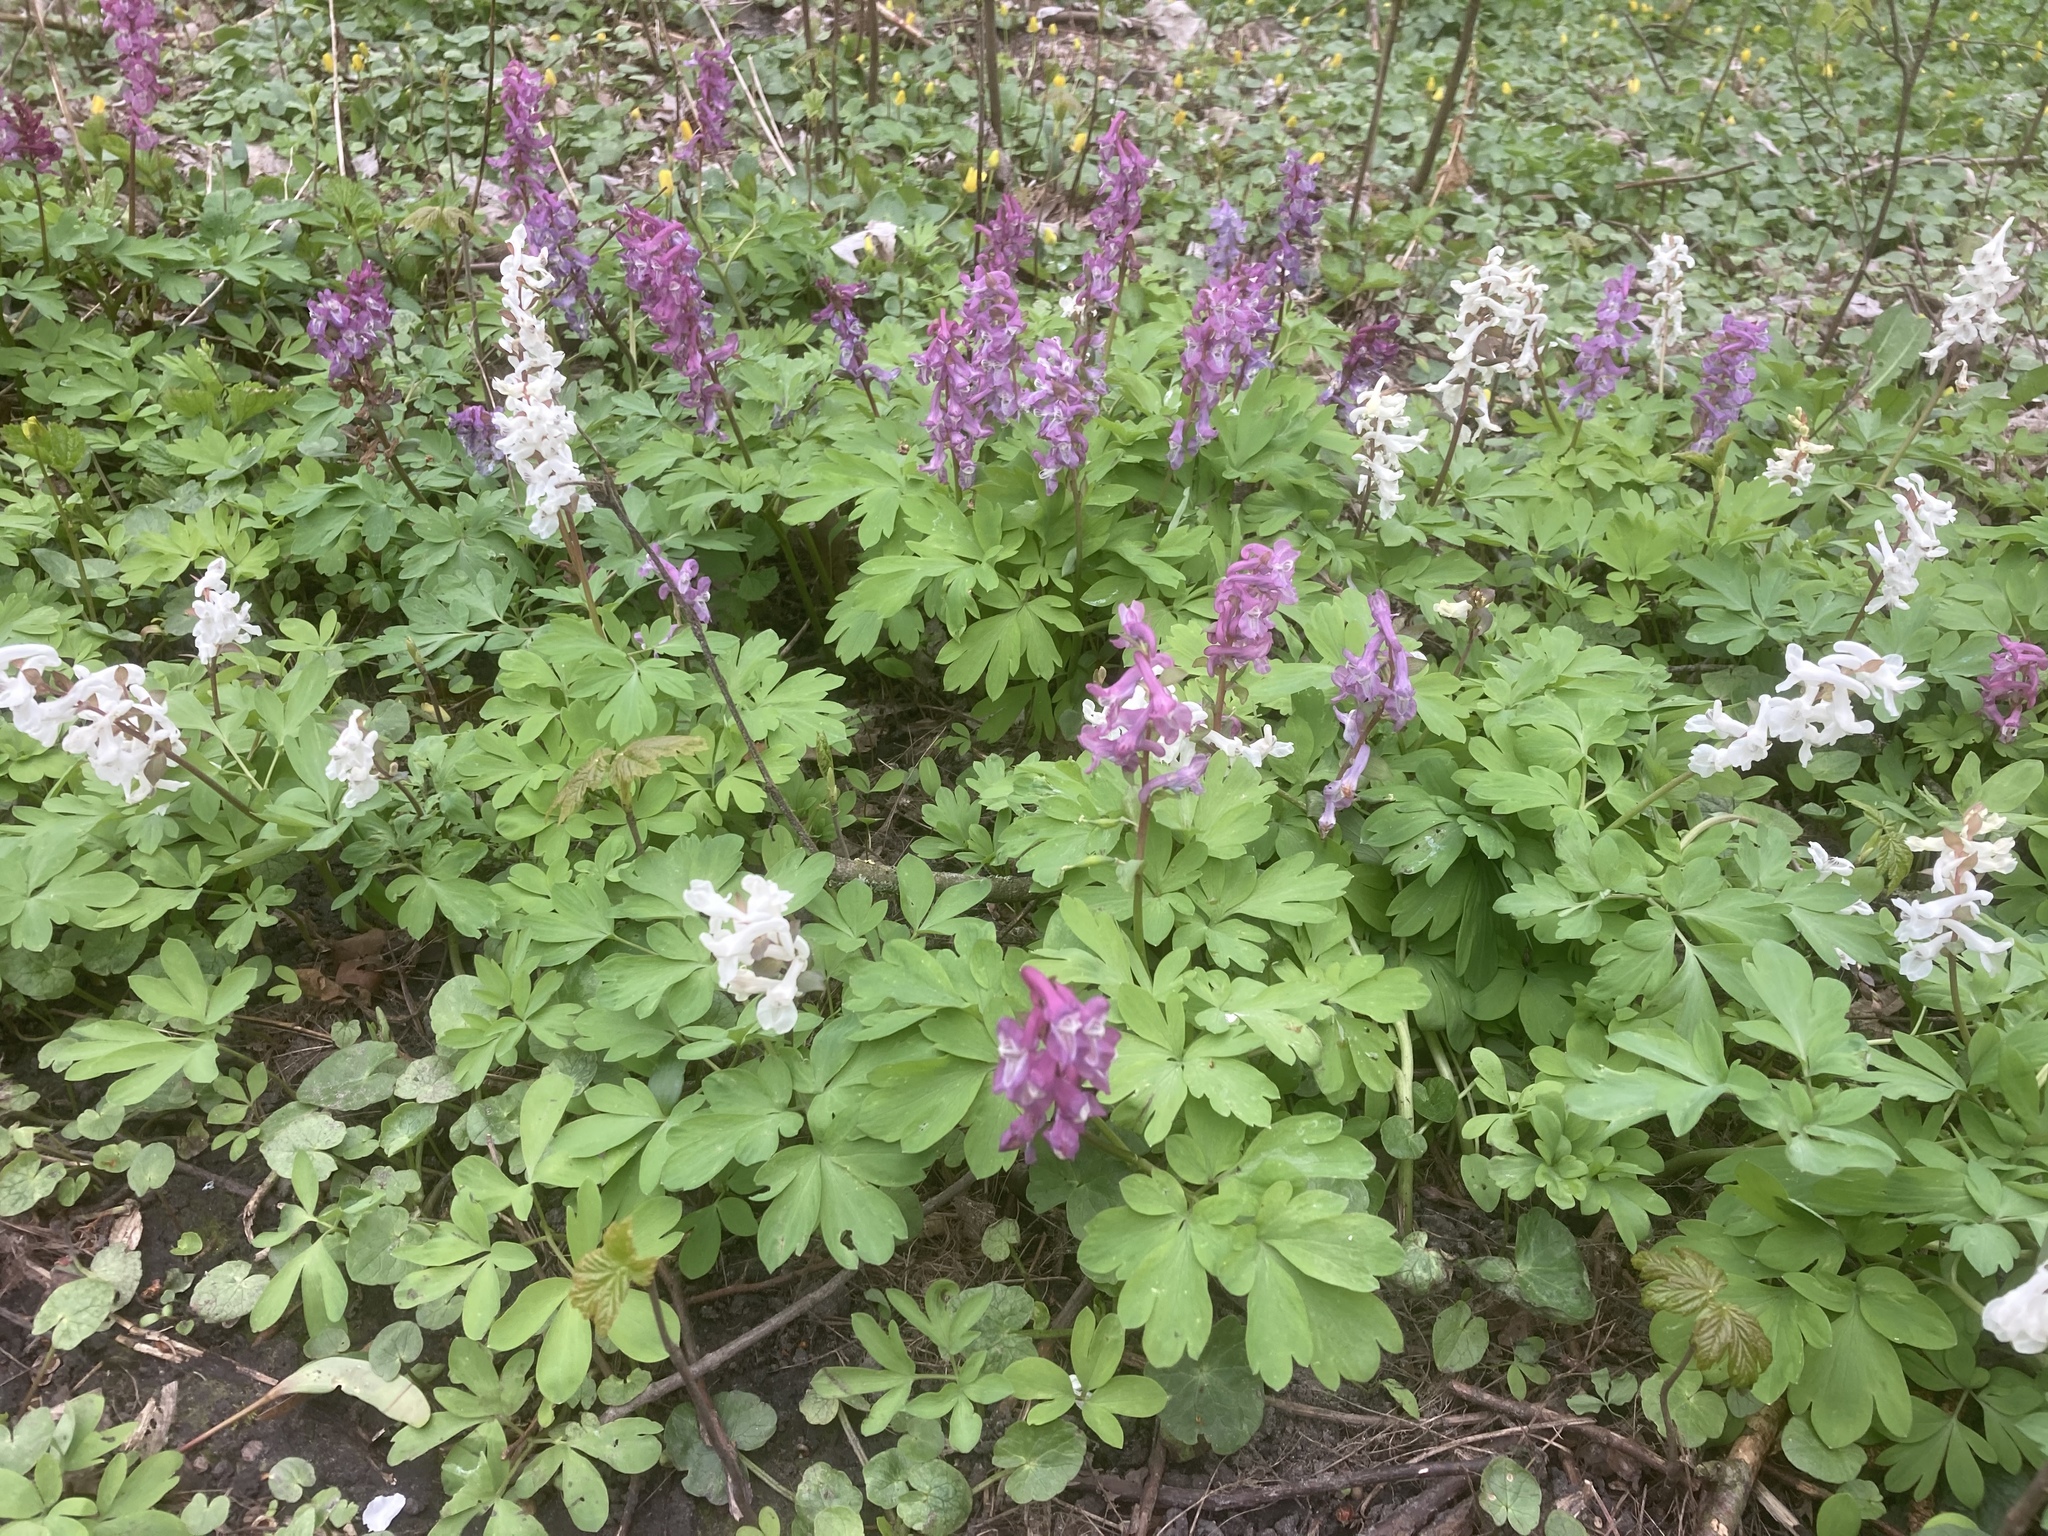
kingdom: Plantae
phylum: Tracheophyta
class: Magnoliopsida
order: Ranunculales
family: Papaveraceae
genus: Corydalis
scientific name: Corydalis cava
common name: Hollowroot
